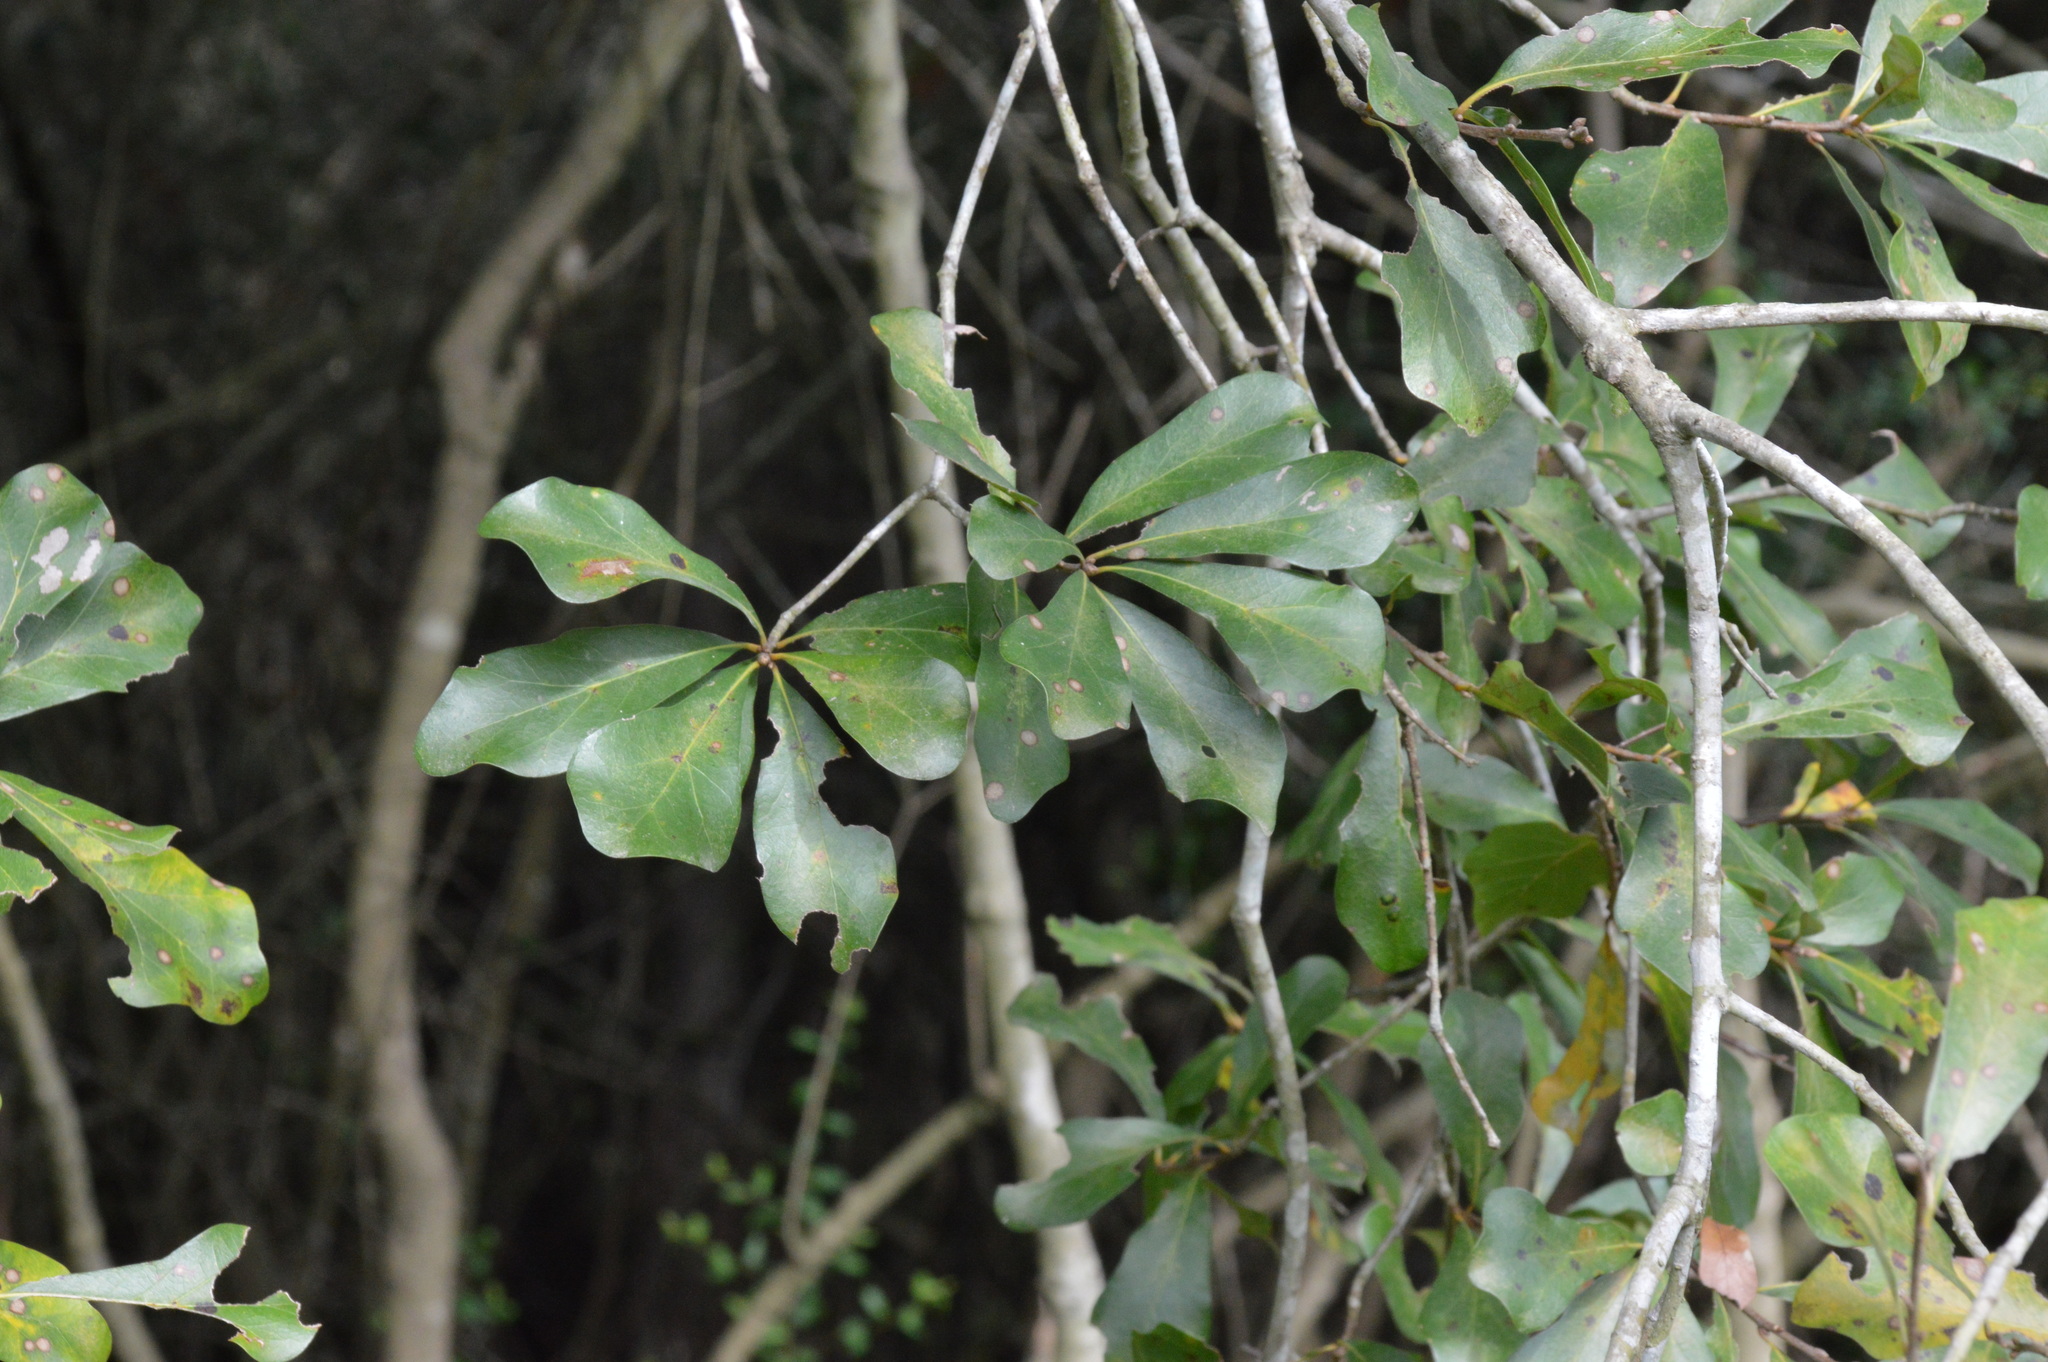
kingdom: Plantae
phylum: Tracheophyta
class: Magnoliopsida
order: Fagales
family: Fagaceae
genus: Quercus
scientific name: Quercus nigra
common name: Water oak
